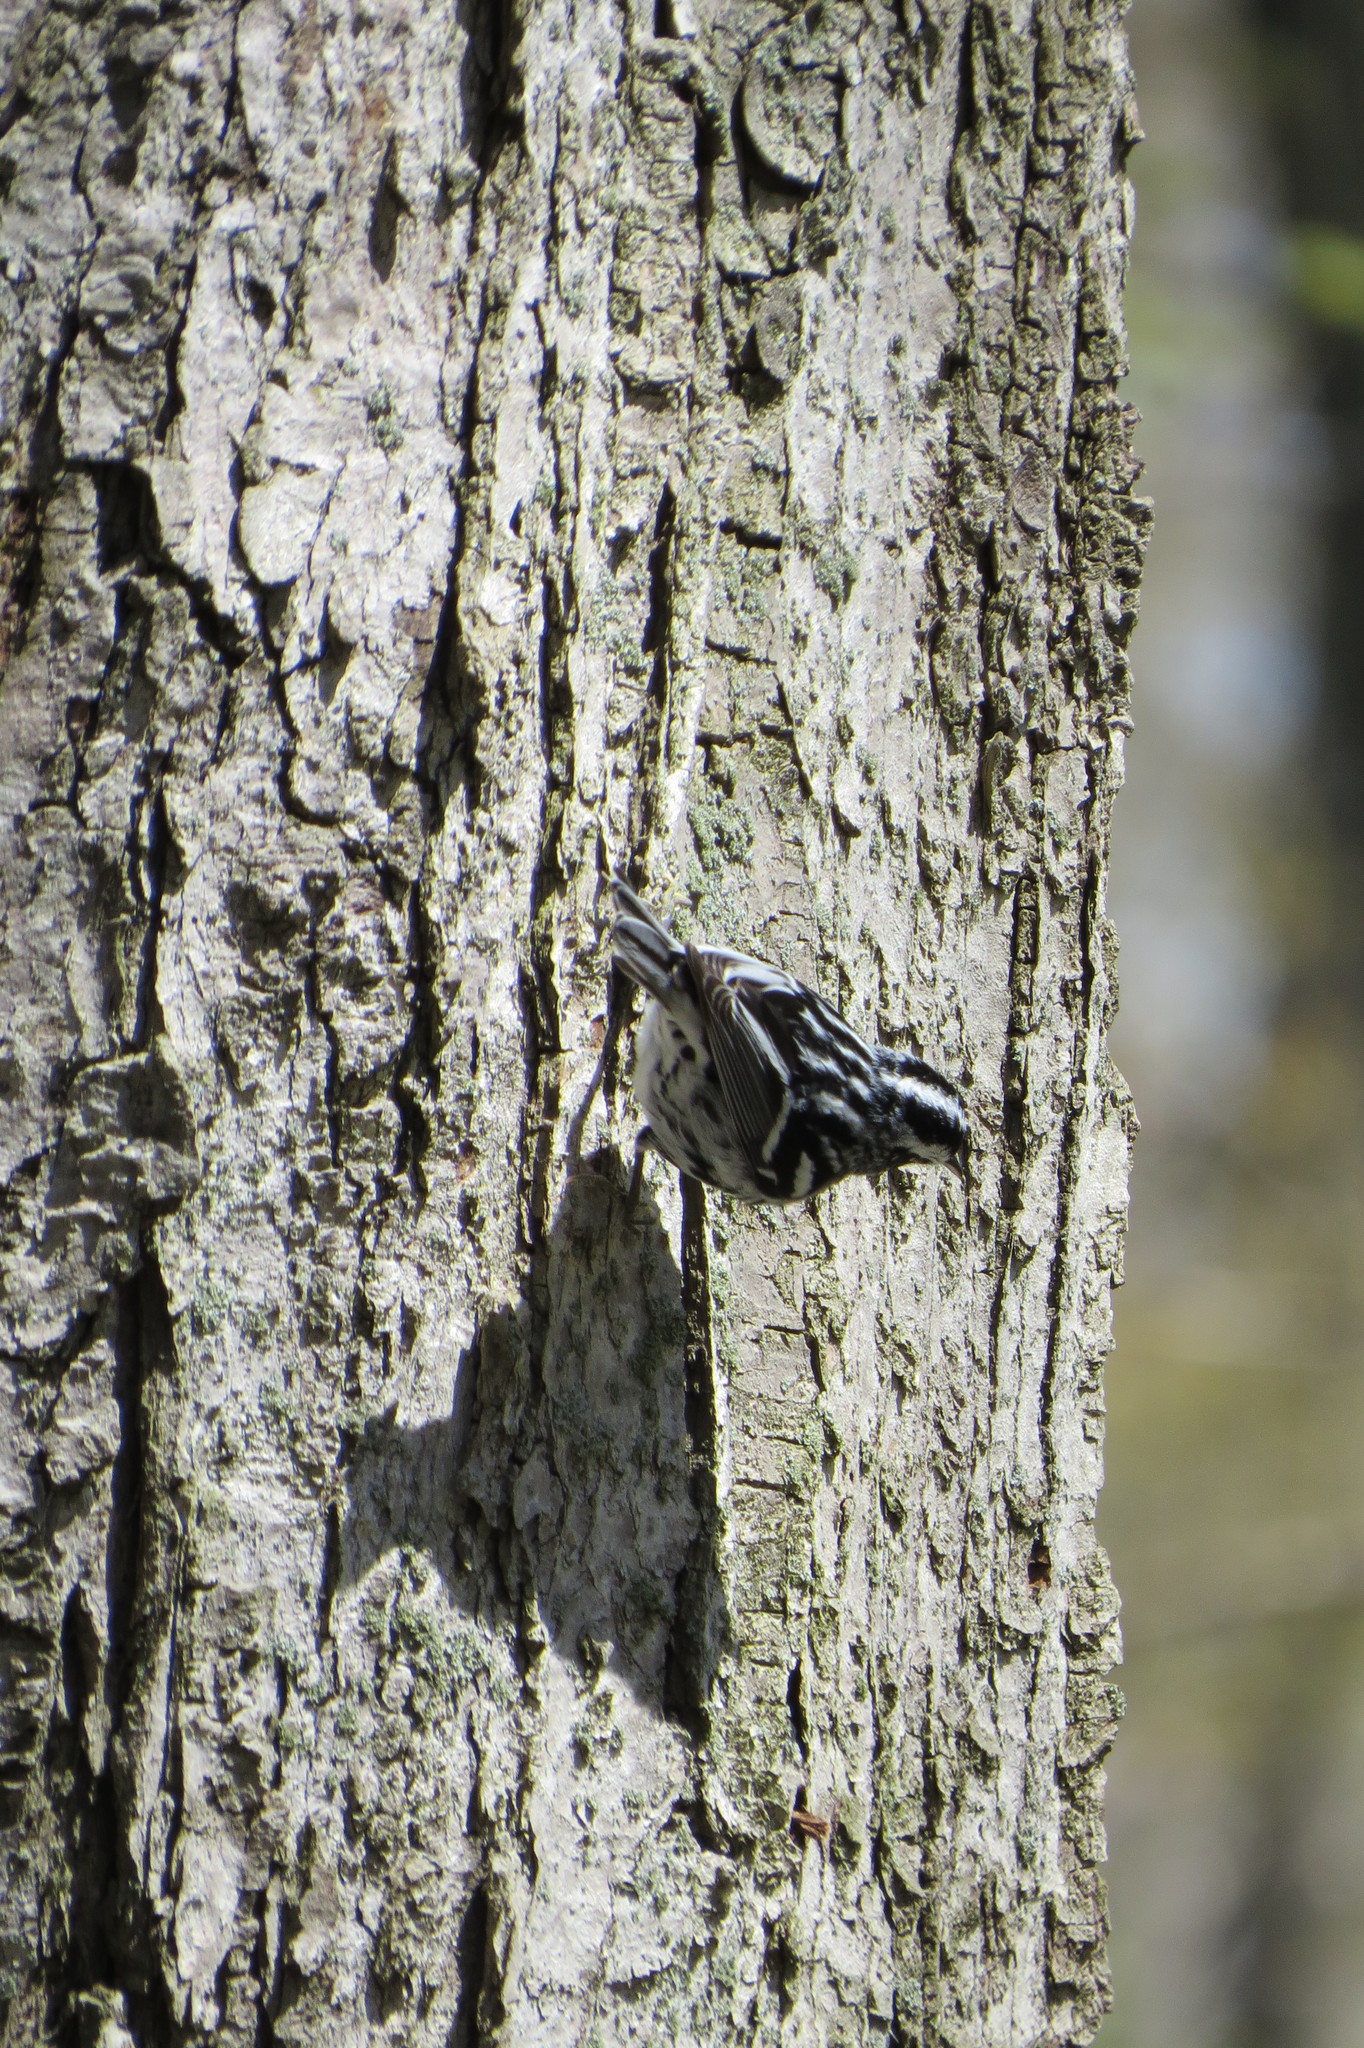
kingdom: Animalia
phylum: Chordata
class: Aves
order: Passeriformes
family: Parulidae
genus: Mniotilta
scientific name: Mniotilta varia
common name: Black-and-white warbler
